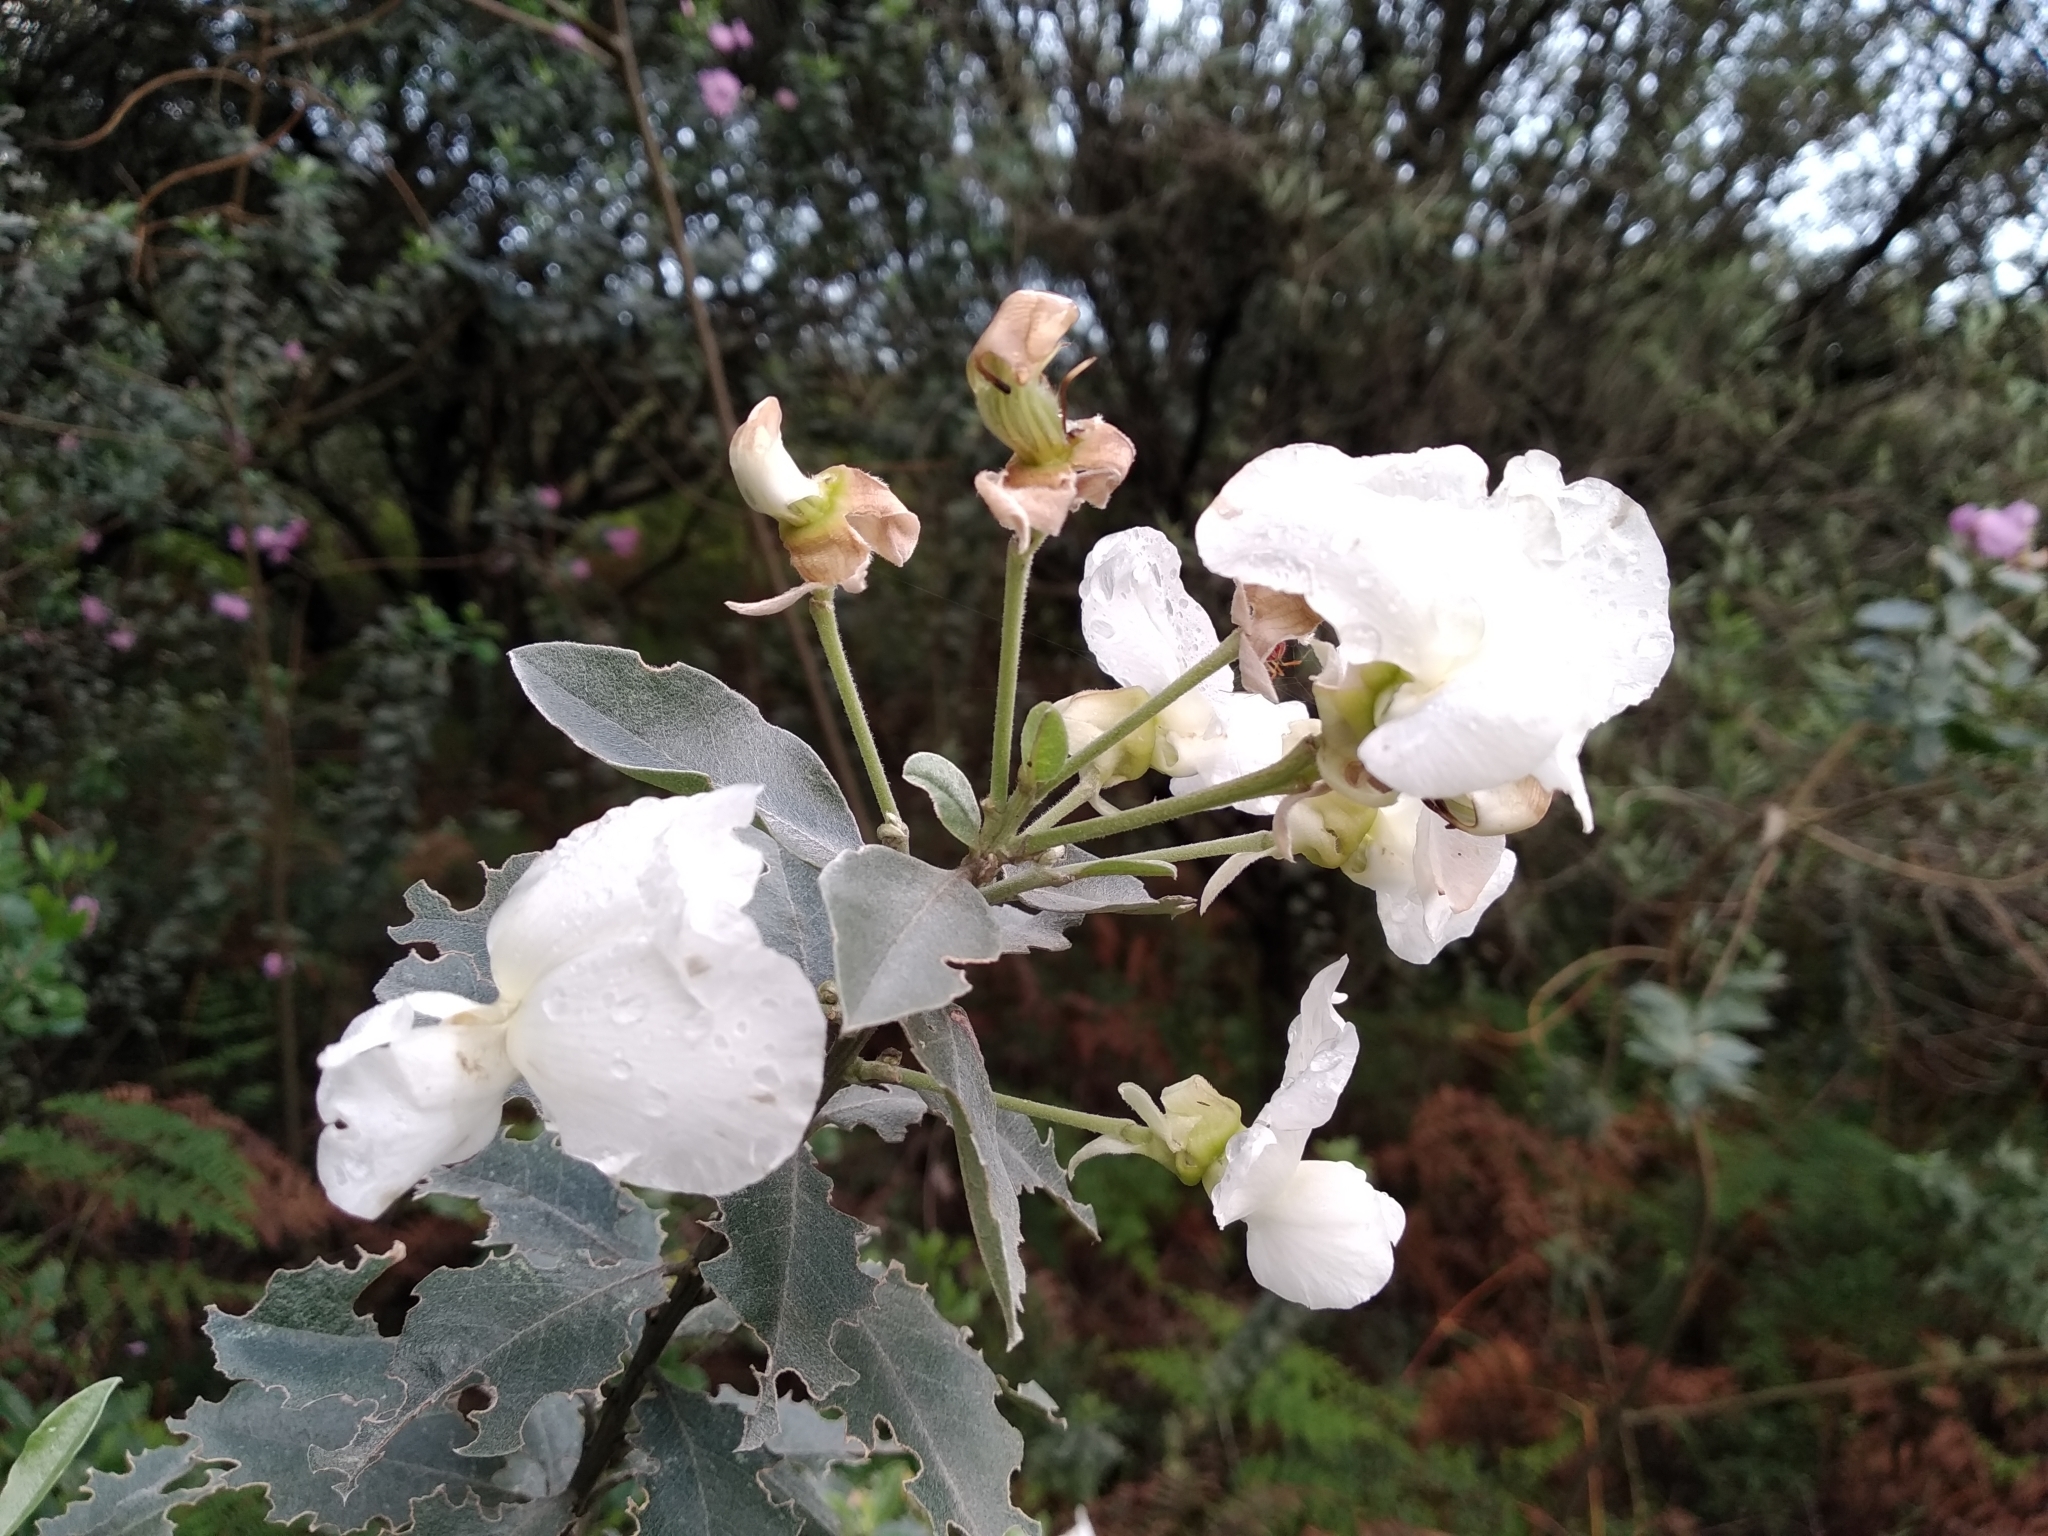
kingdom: Plantae
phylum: Tracheophyta
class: Magnoliopsida
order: Fabales
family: Fabaceae
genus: Podalyria
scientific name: Podalyria calyptrata
